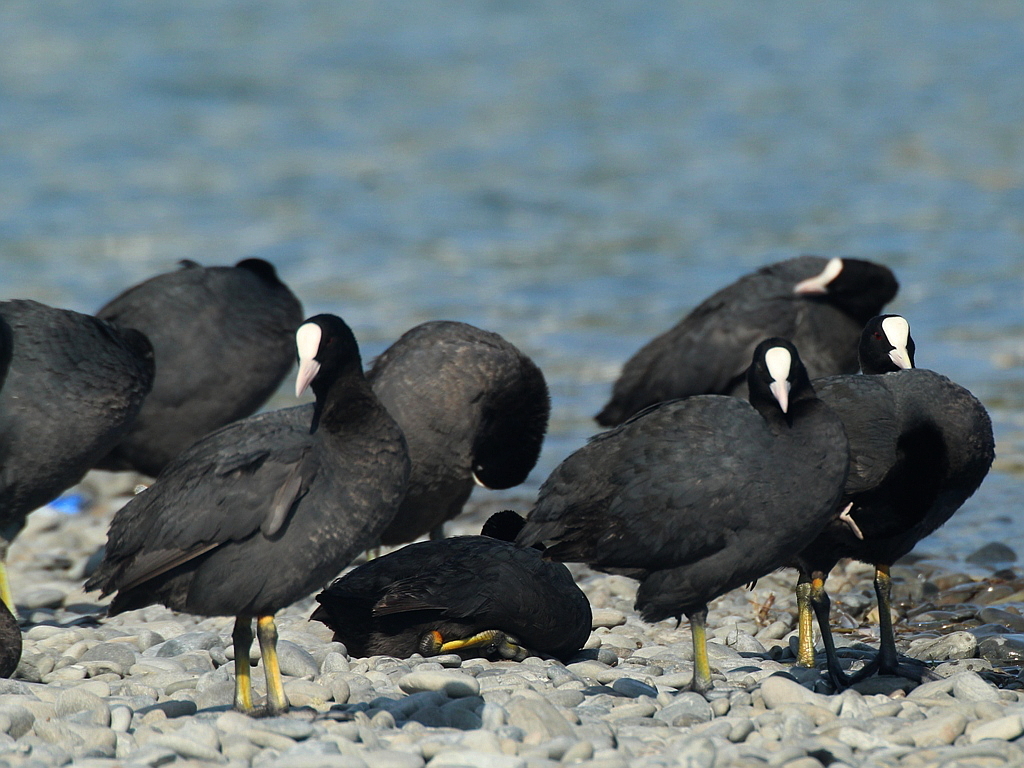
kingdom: Animalia
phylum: Chordata
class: Aves
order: Gruiformes
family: Rallidae
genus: Fulica
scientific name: Fulica atra
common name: Eurasian coot
